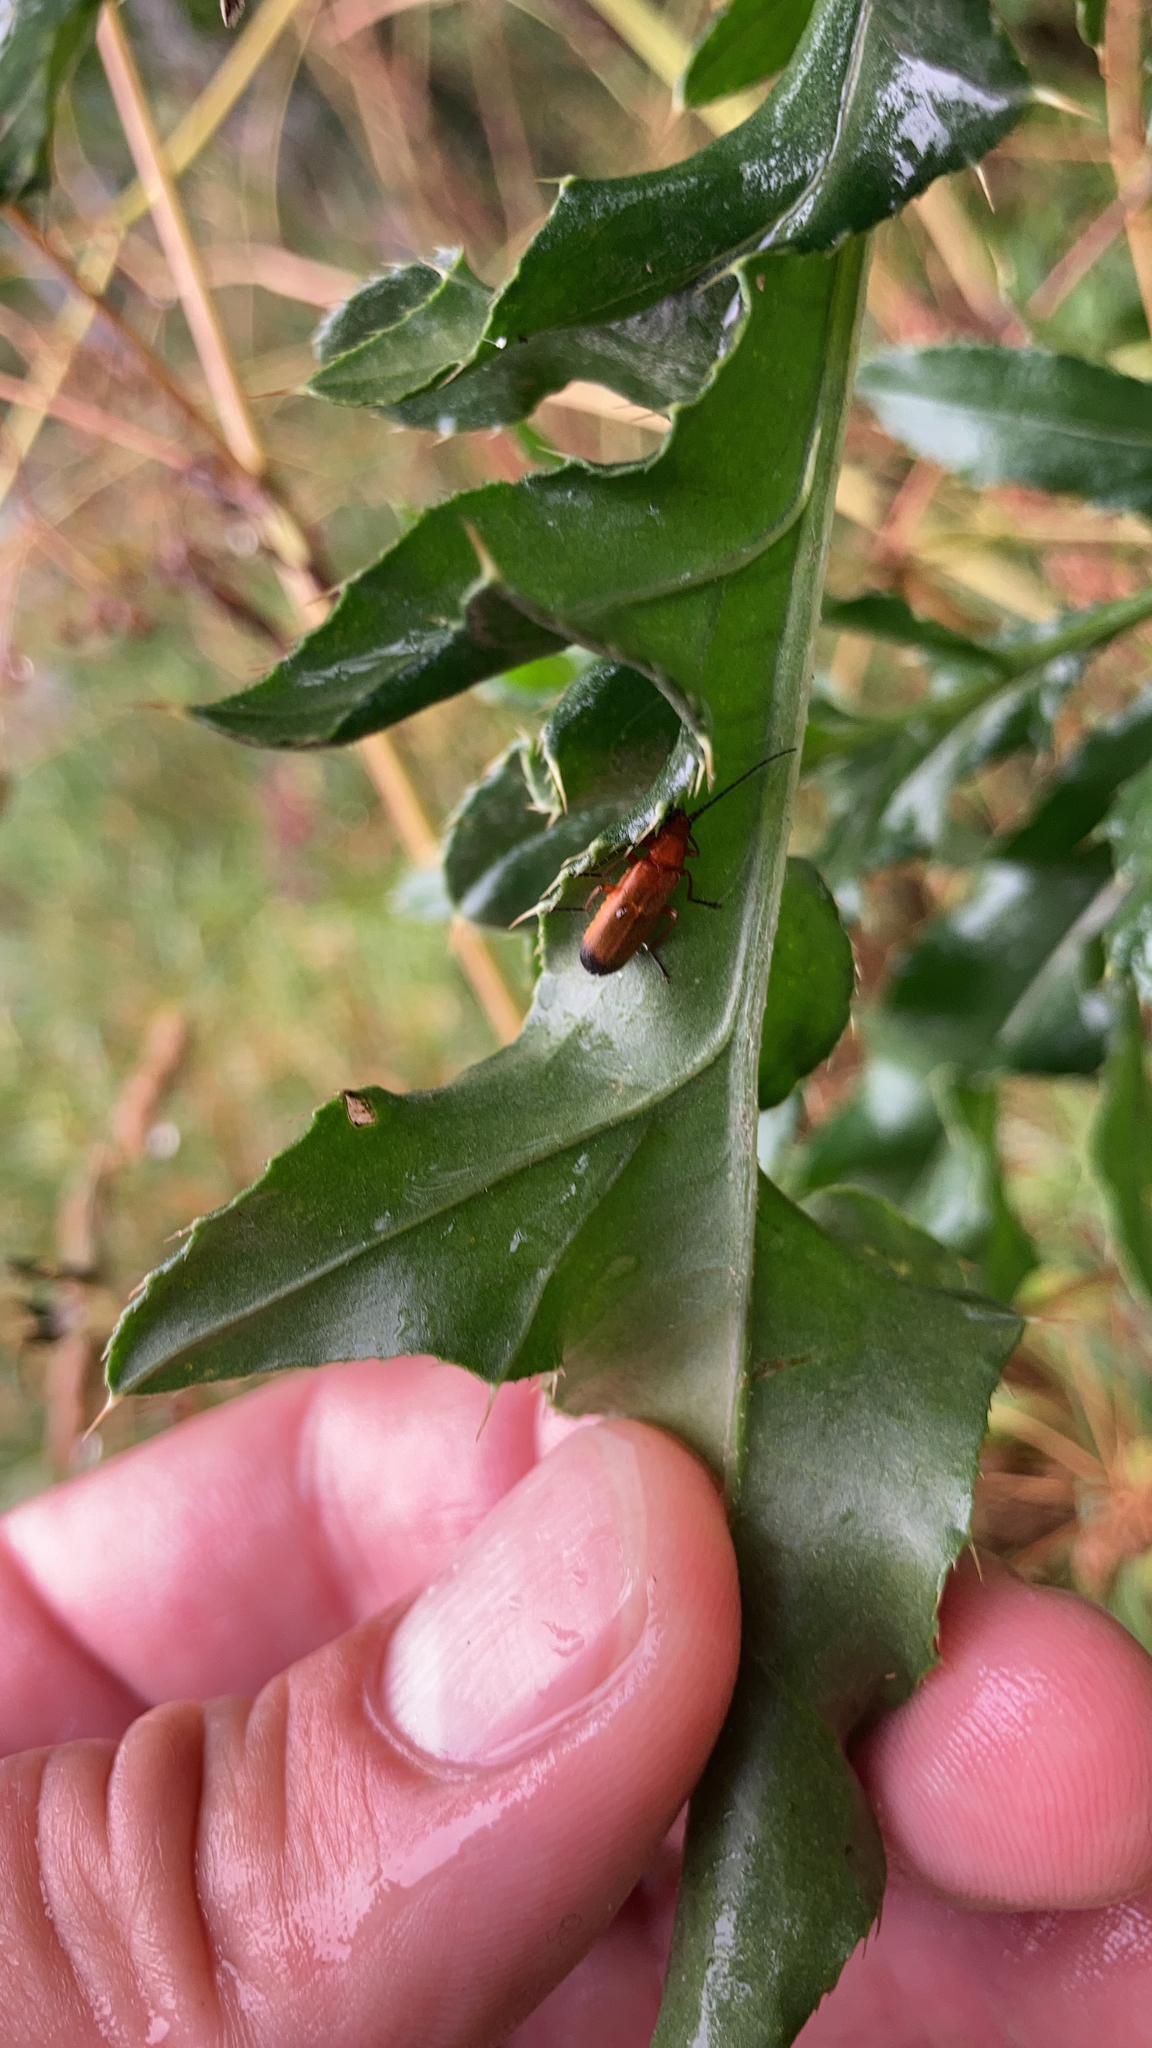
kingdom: Animalia
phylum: Arthropoda
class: Insecta
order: Coleoptera
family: Cantharidae
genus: Rhagonycha
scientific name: Rhagonycha fulva
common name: Common red soldier beetle
